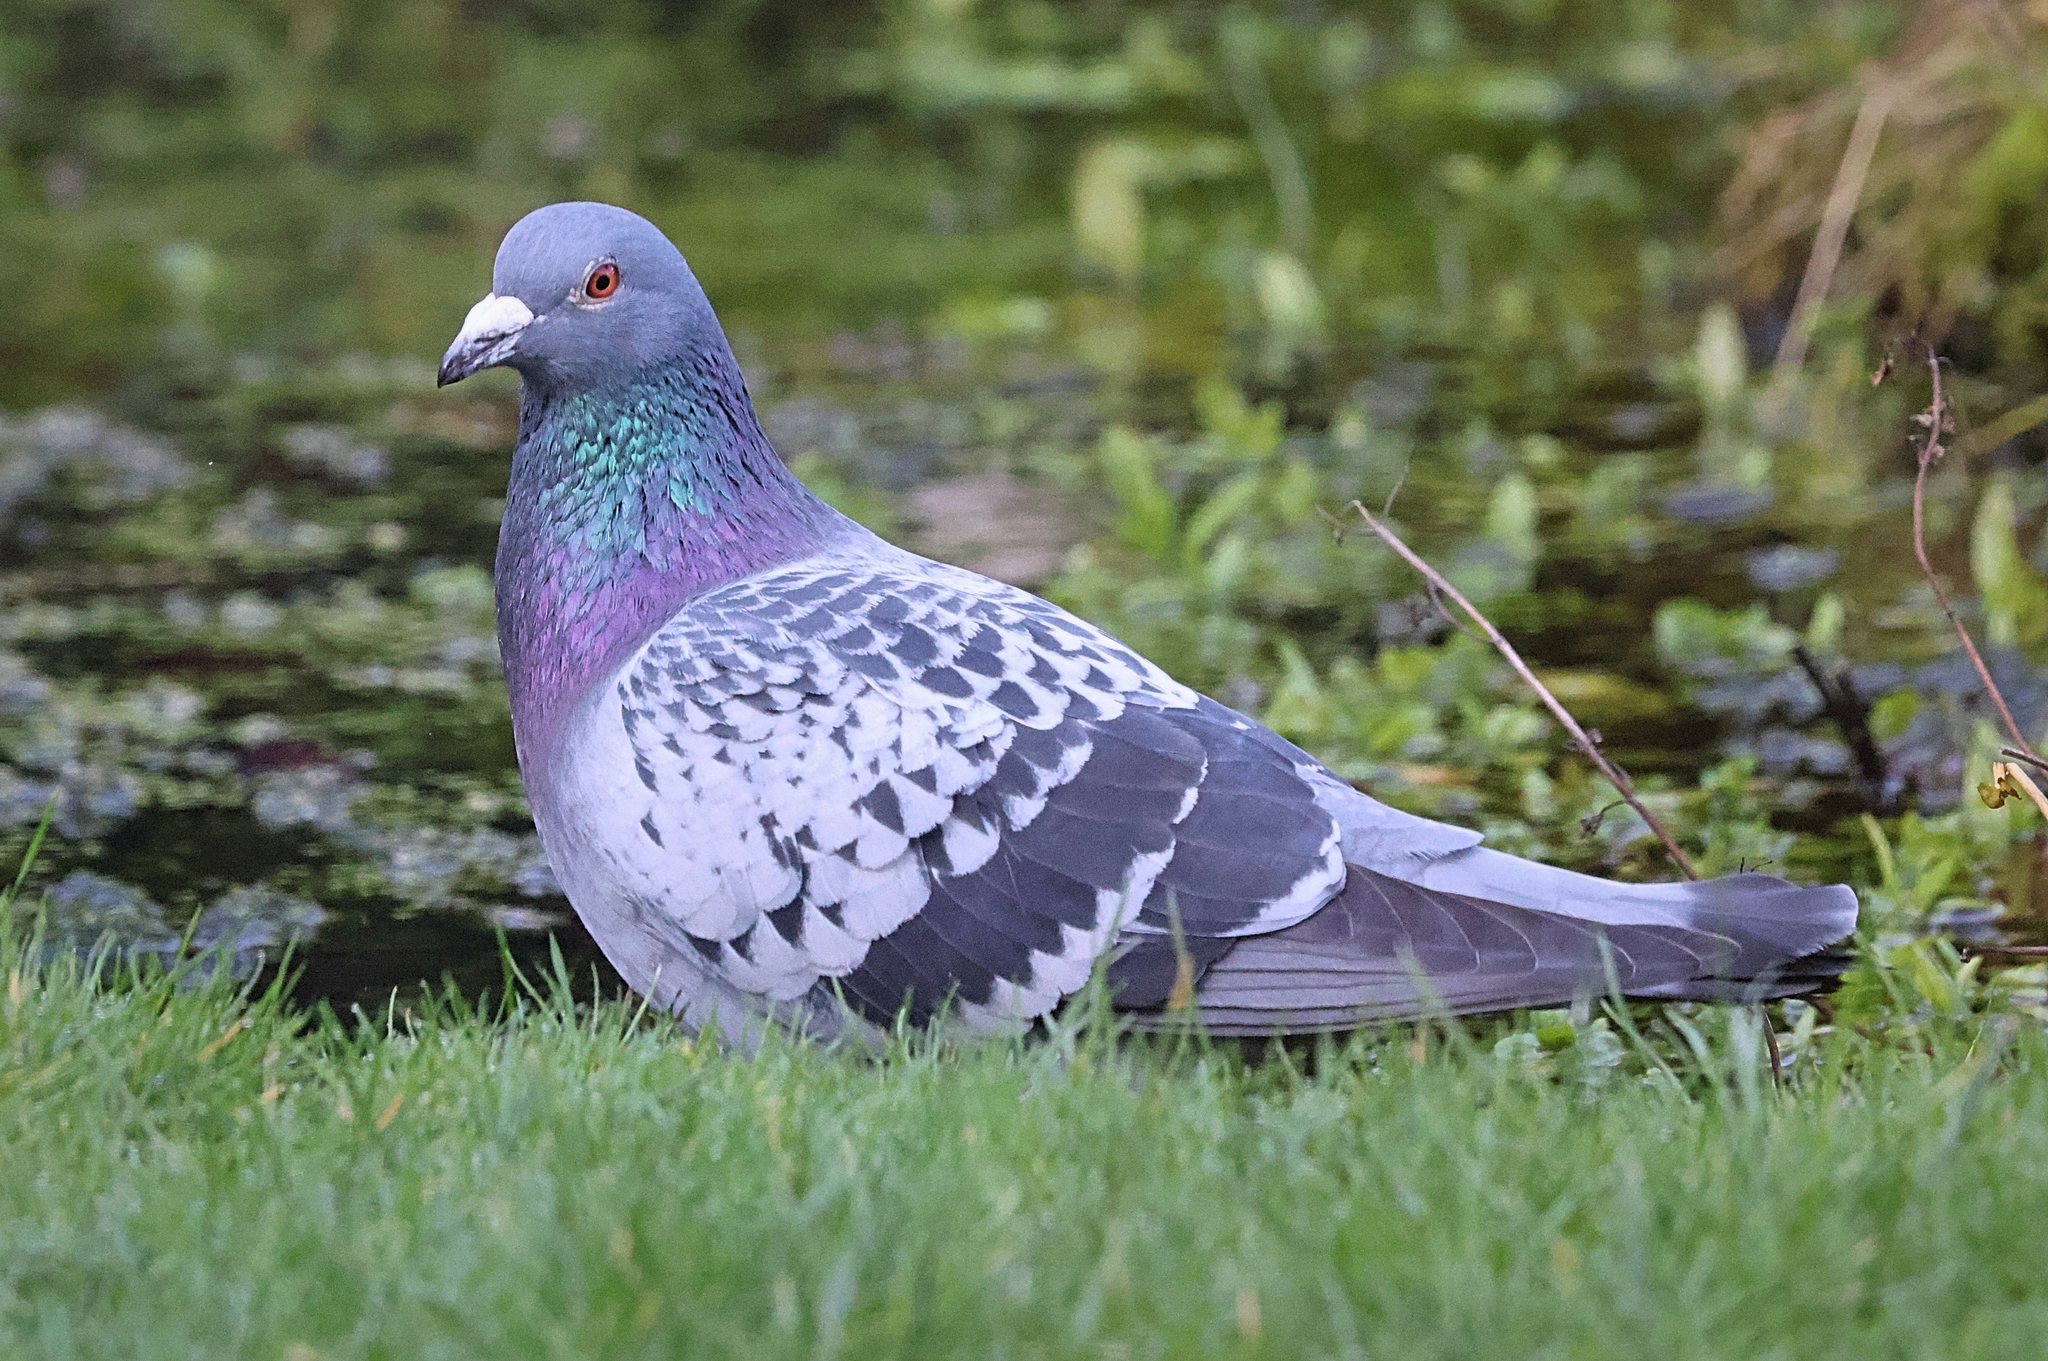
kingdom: Animalia
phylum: Chordata
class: Aves
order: Columbiformes
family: Columbidae
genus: Columba
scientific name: Columba livia
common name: Rock pigeon
